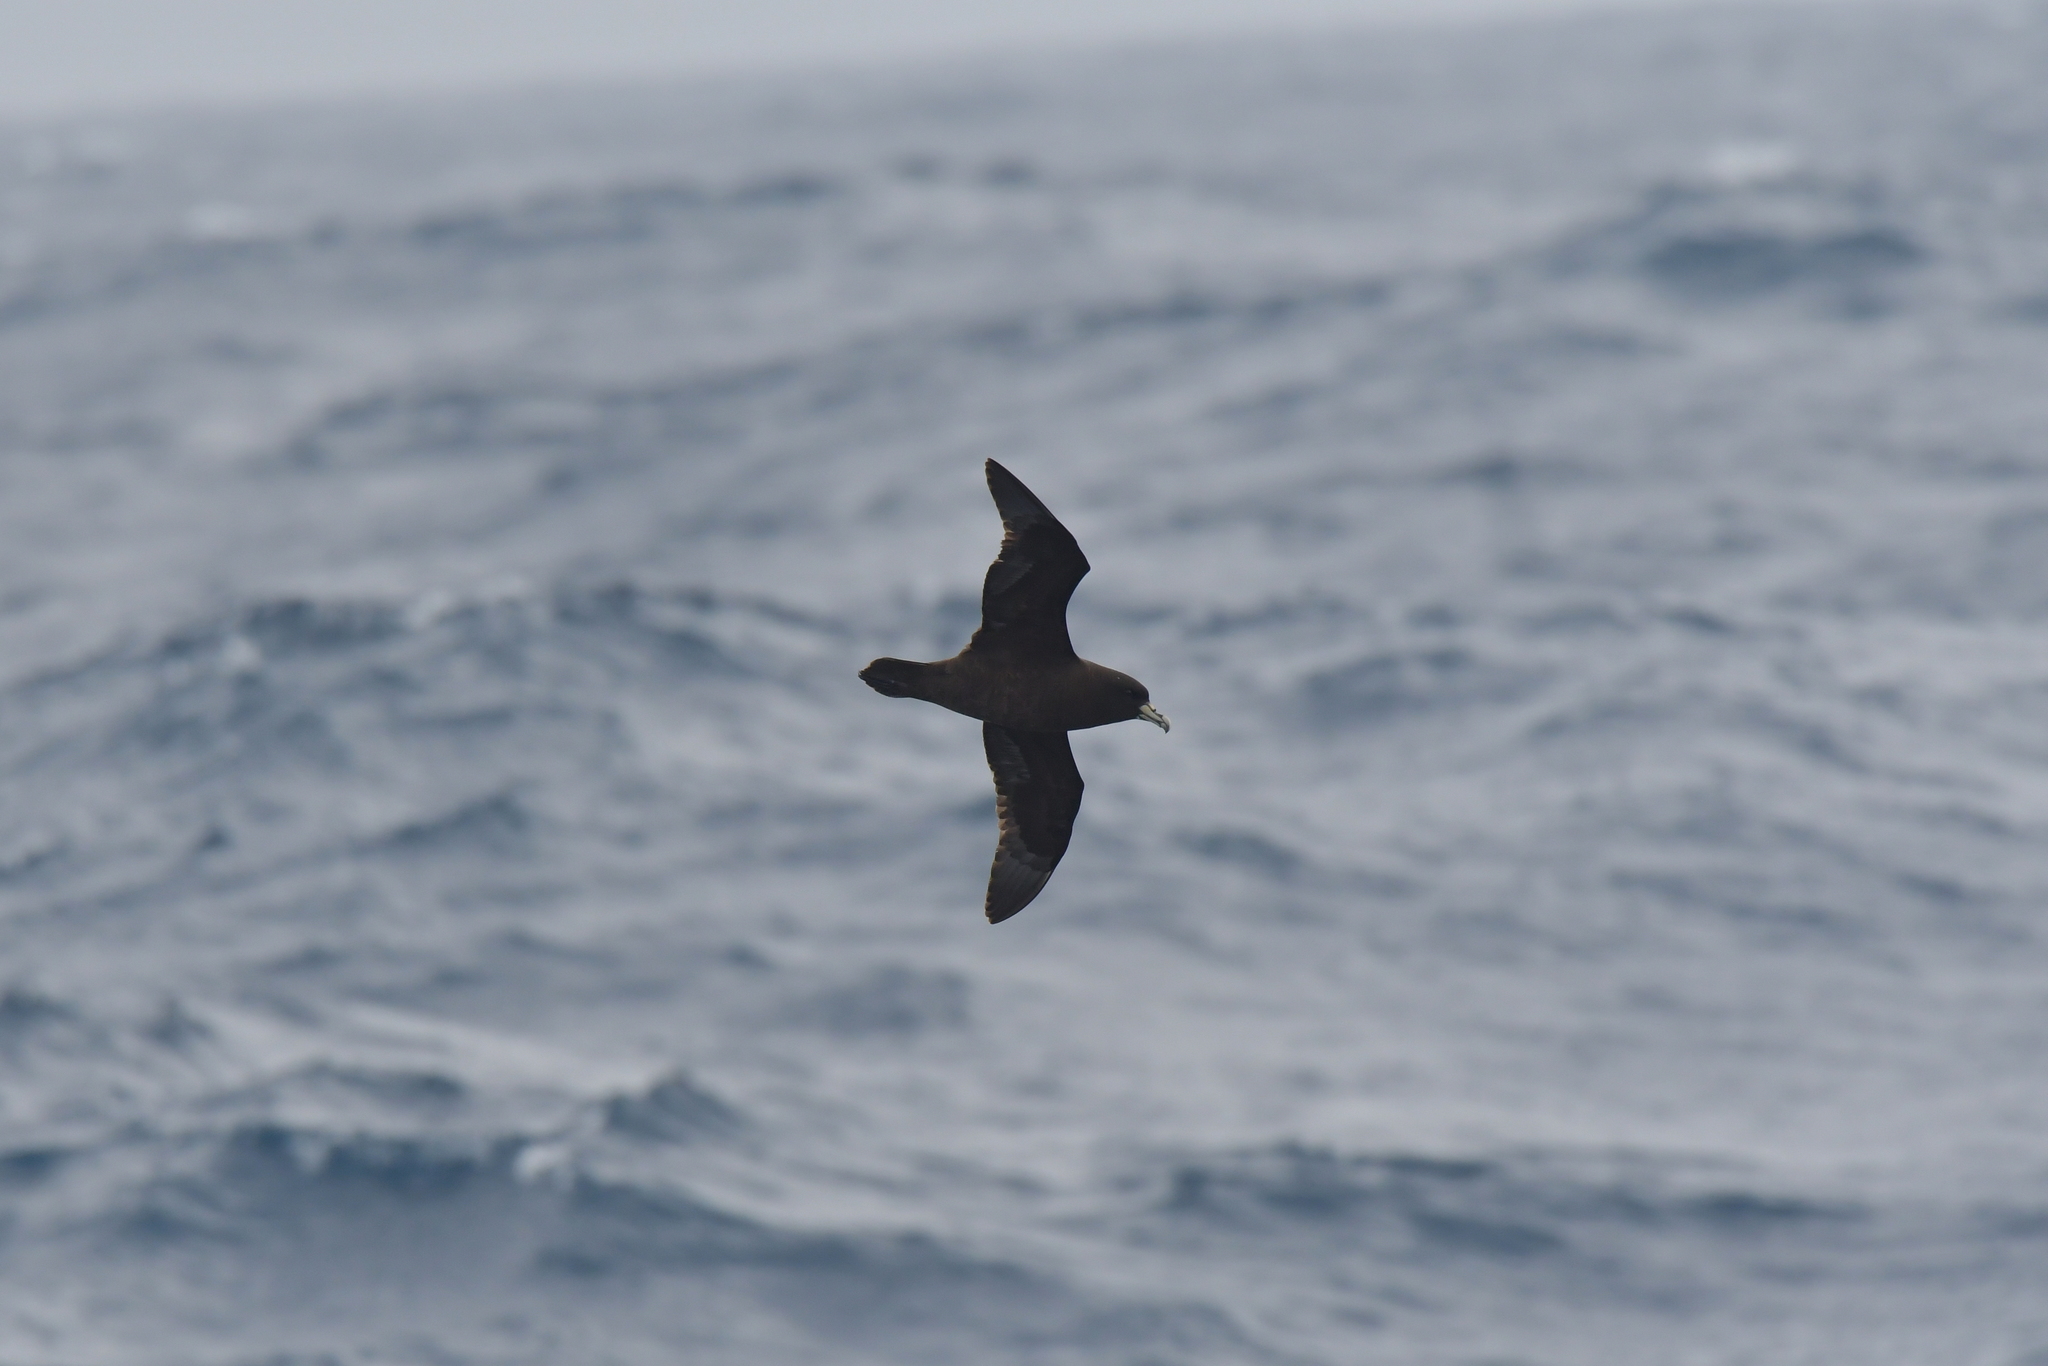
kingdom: Animalia
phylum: Chordata
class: Aves
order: Procellariiformes
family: Procellariidae
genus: Procellaria
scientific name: Procellaria aequinoctialis
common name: White-chinned petrel
